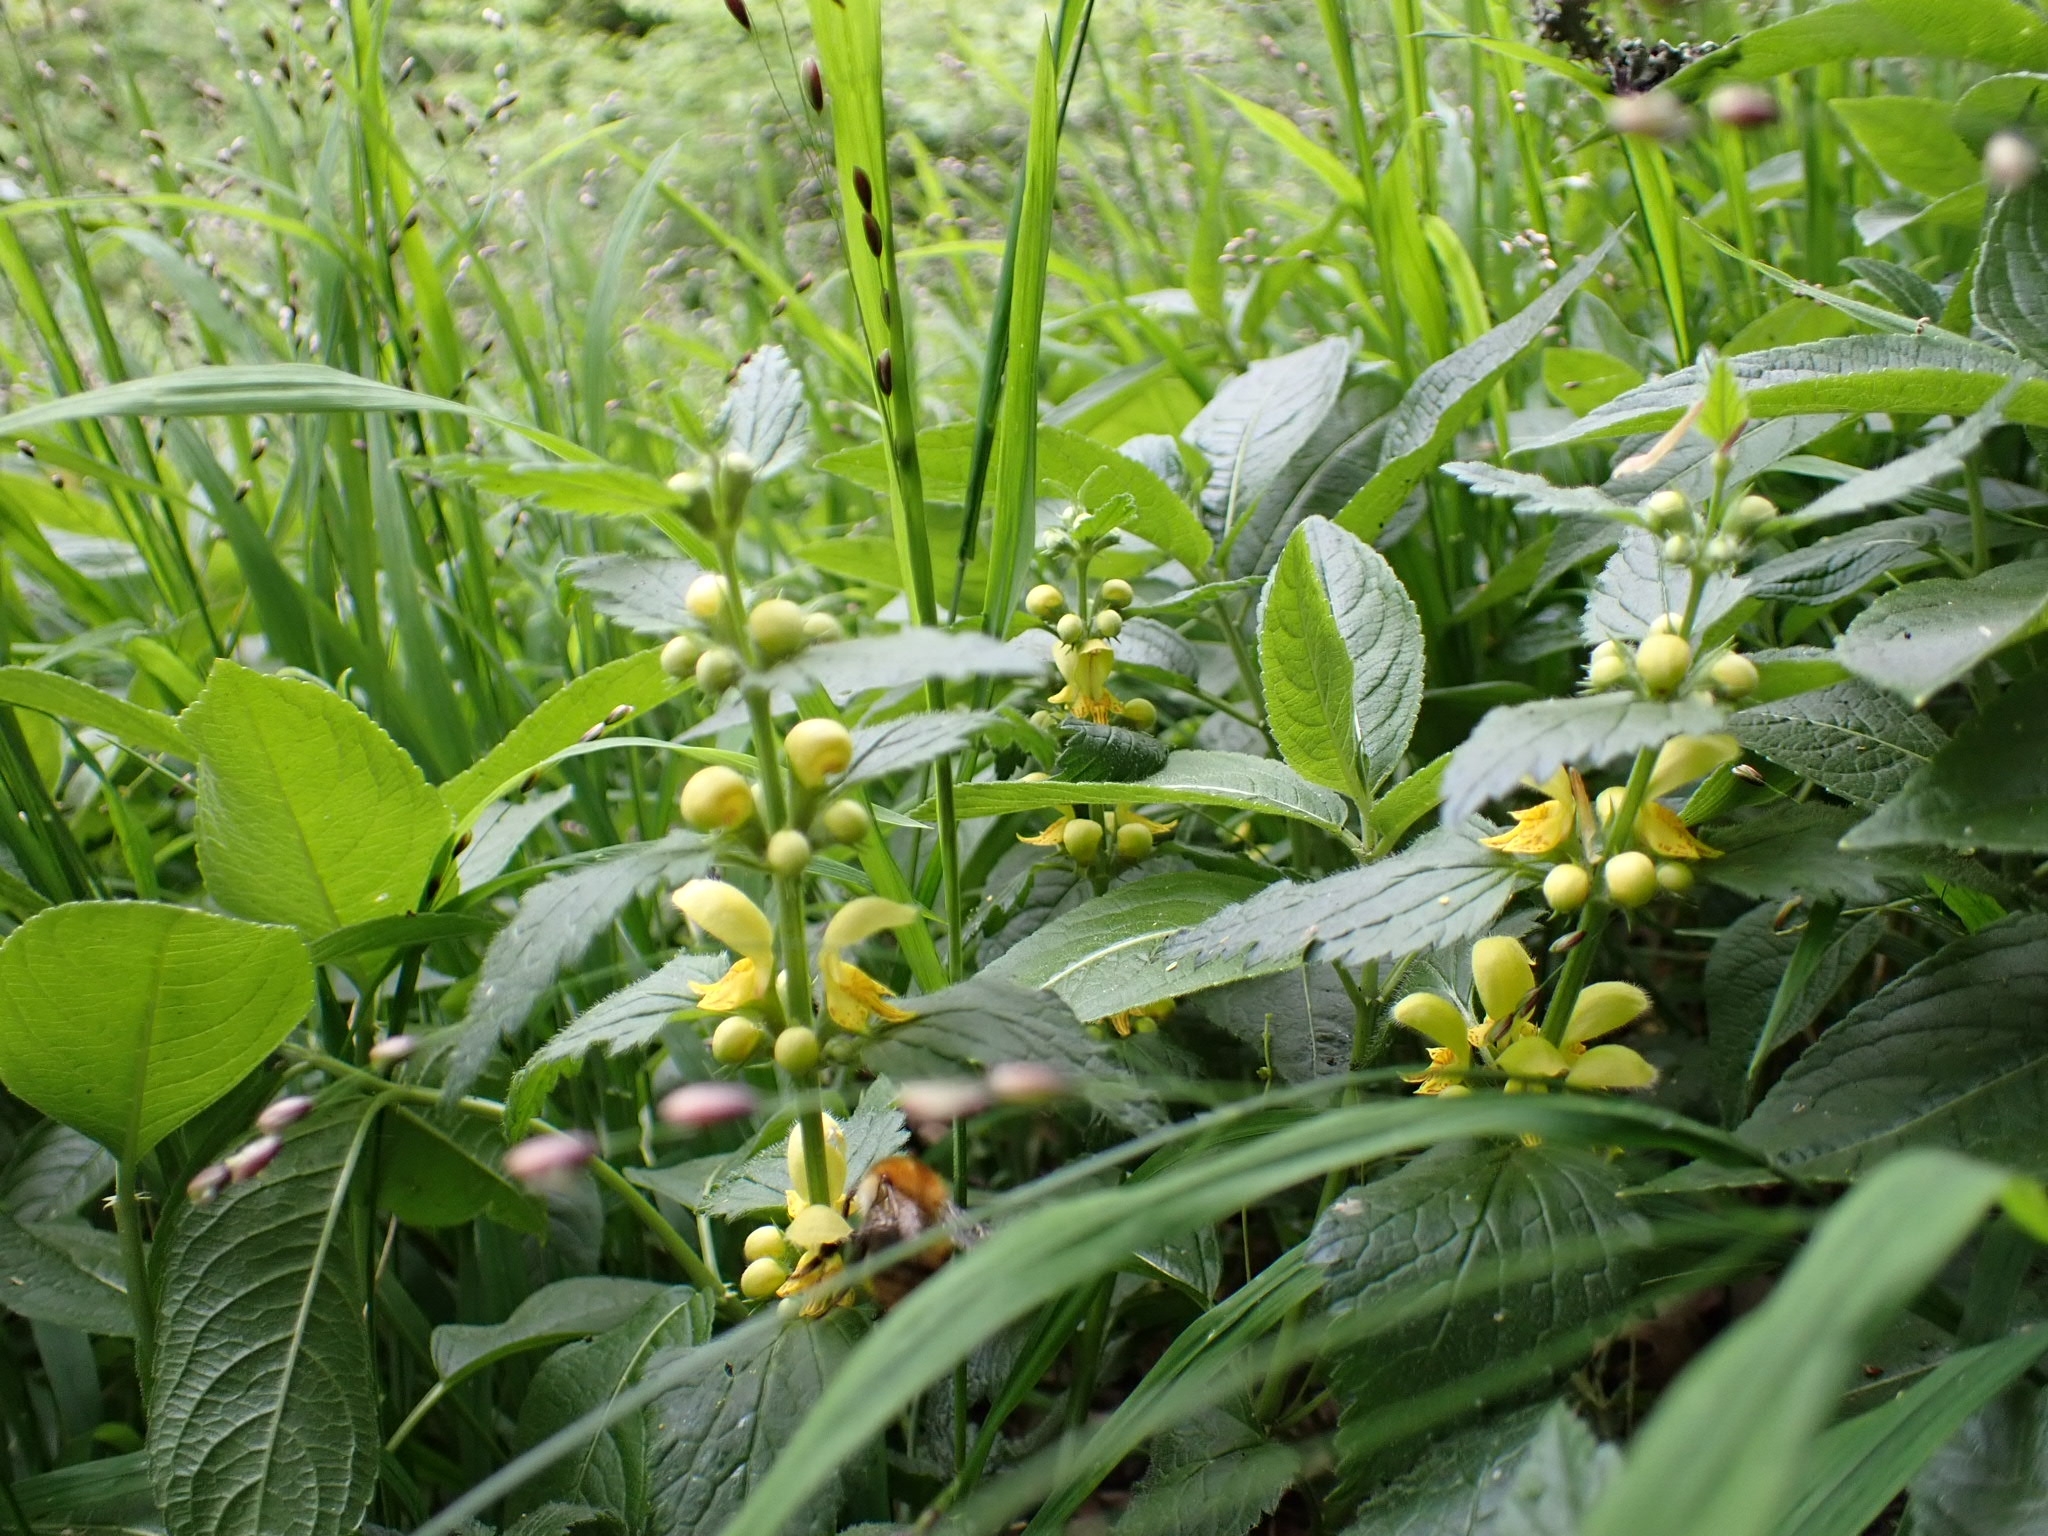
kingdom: Plantae
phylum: Tracheophyta
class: Magnoliopsida
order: Lamiales
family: Lamiaceae
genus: Lamium
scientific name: Lamium galeobdolon
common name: Yellow archangel
